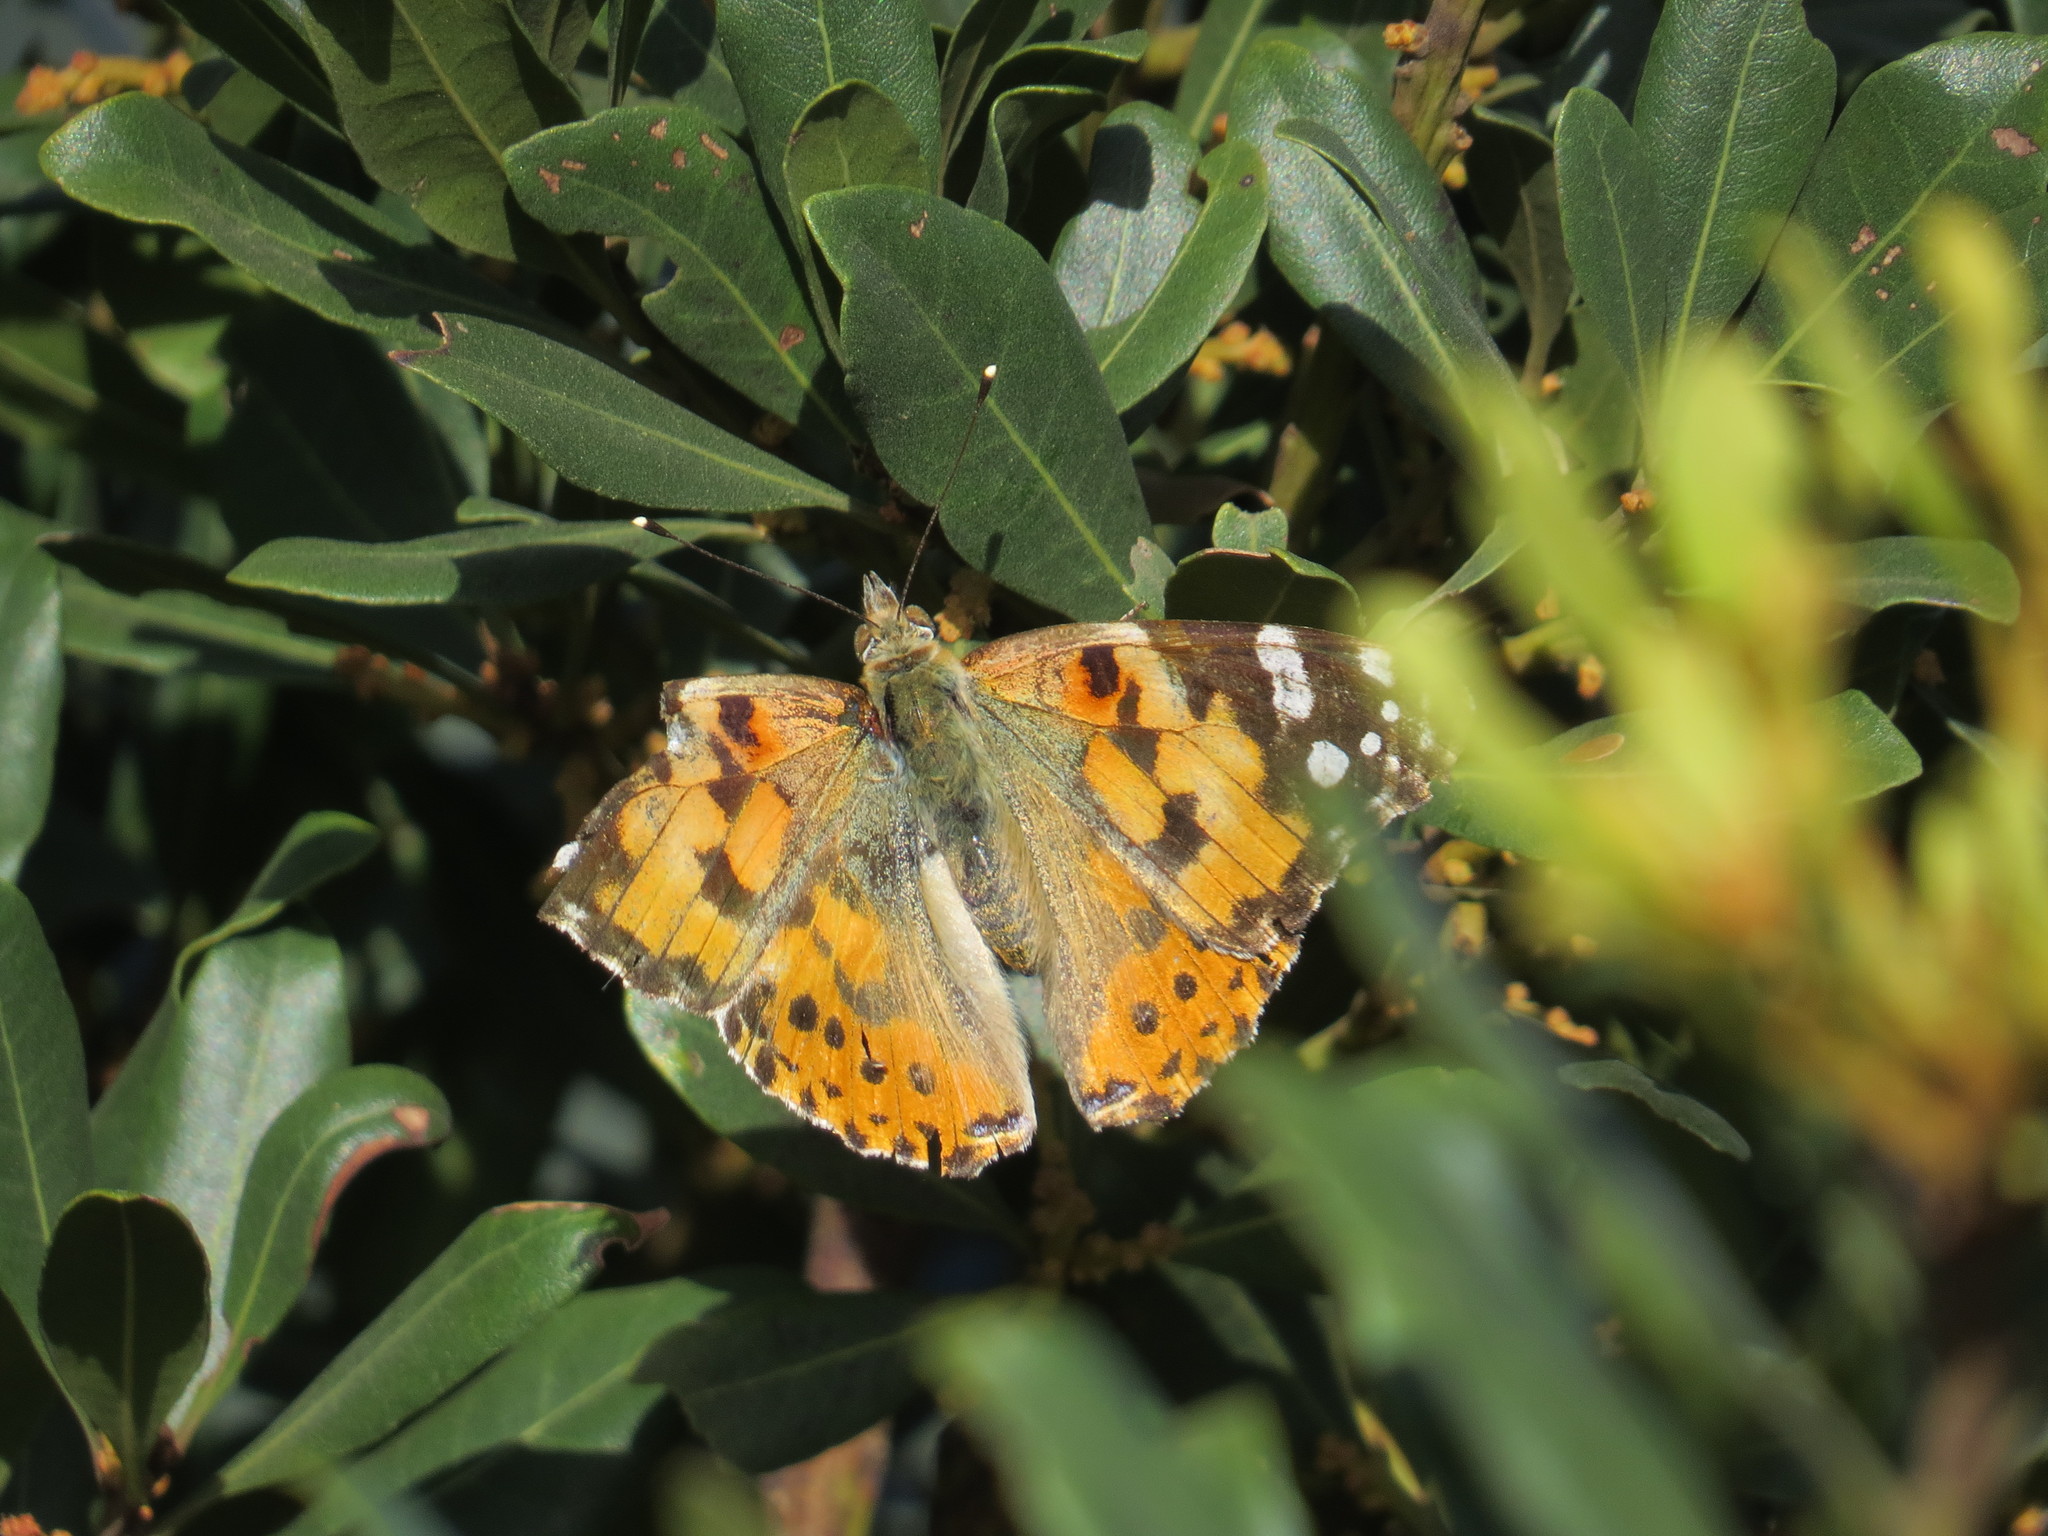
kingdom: Animalia
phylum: Arthropoda
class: Insecta
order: Lepidoptera
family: Nymphalidae
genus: Vanessa
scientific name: Vanessa cardui
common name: Painted lady
